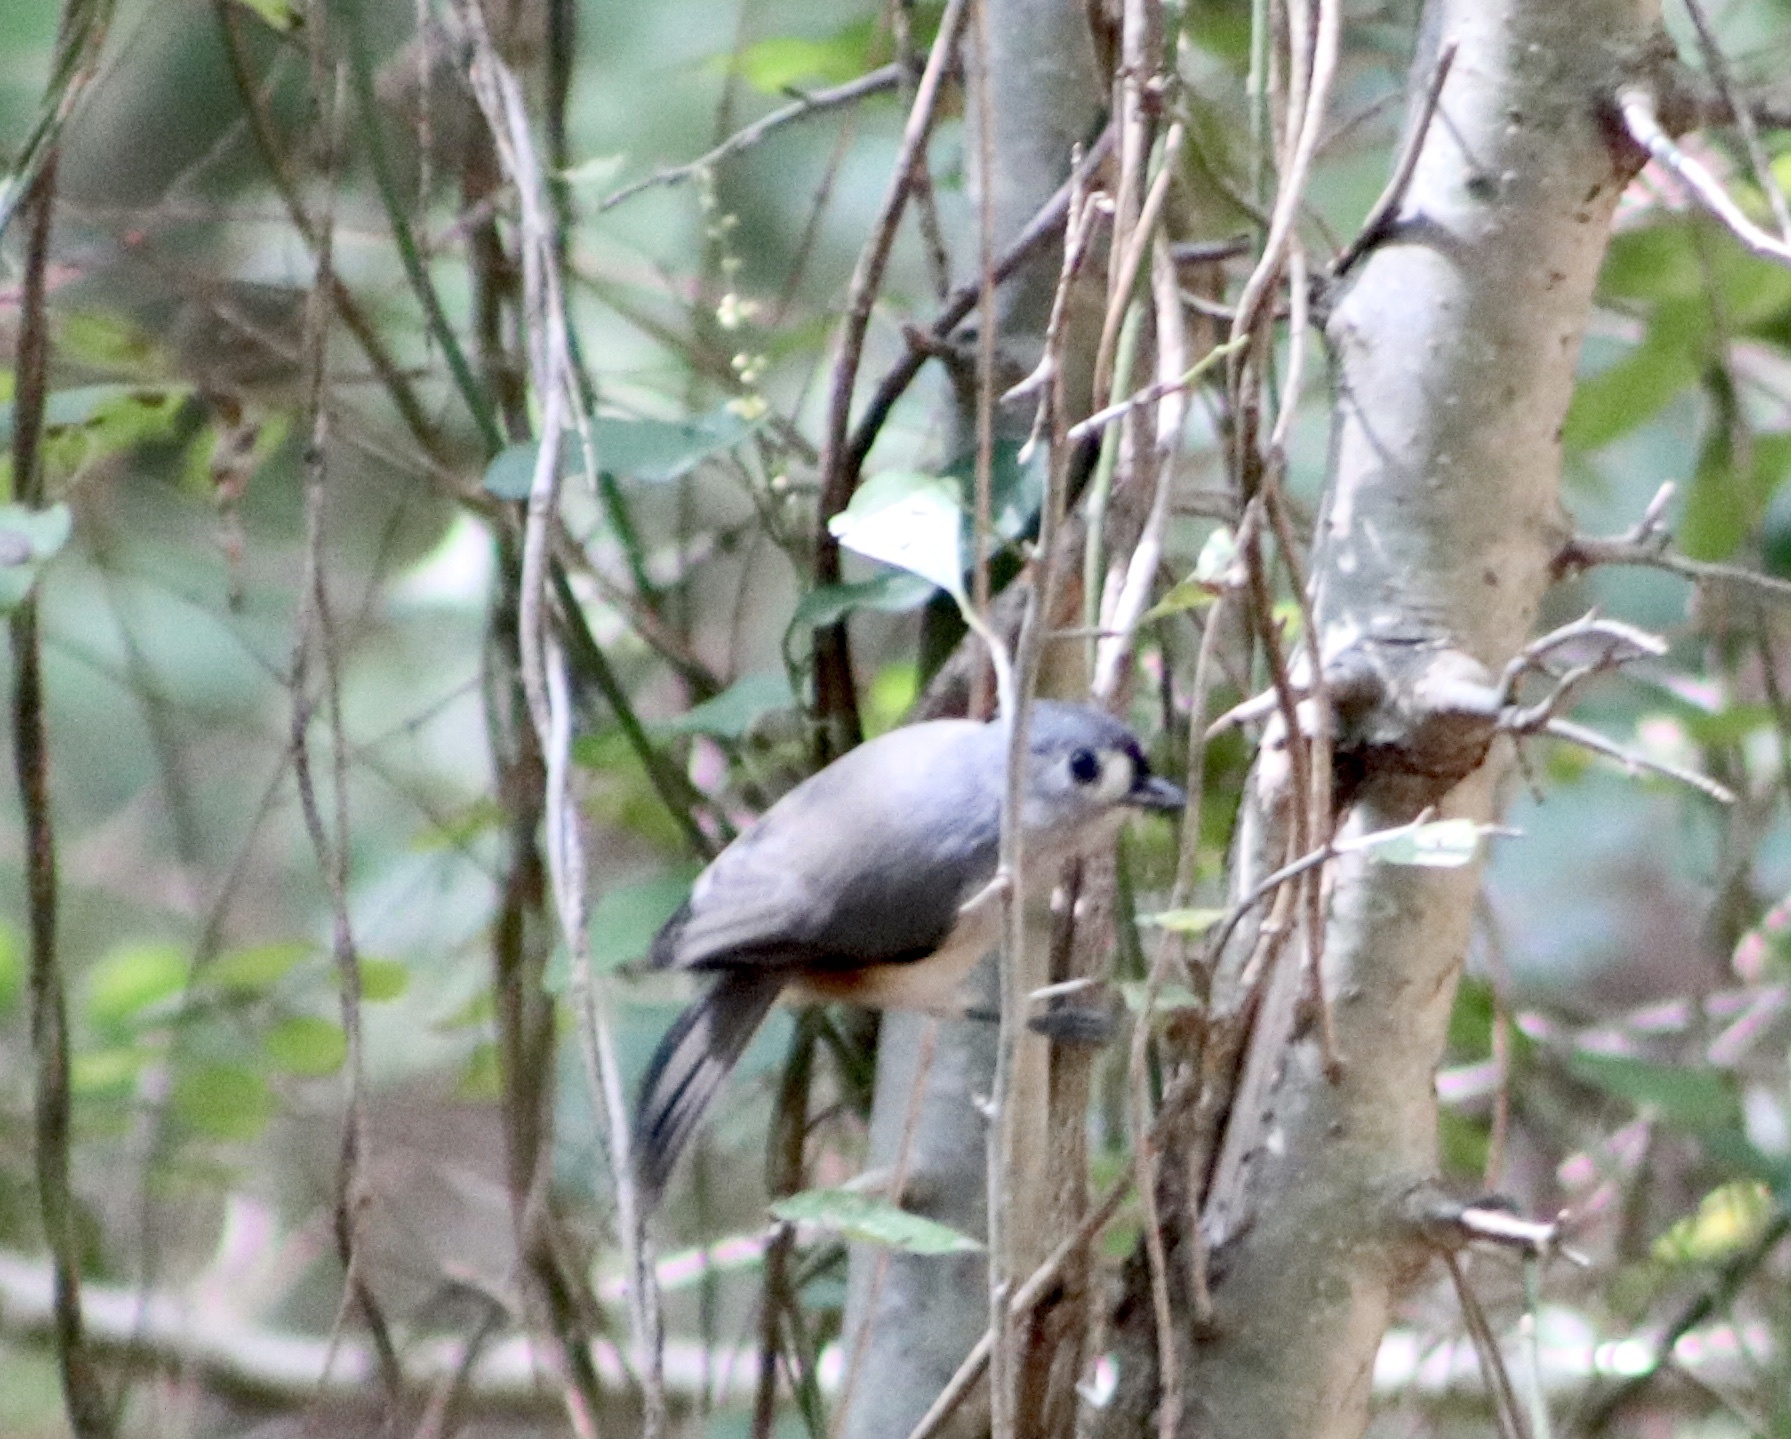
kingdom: Animalia
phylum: Chordata
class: Aves
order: Passeriformes
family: Paridae
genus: Baeolophus
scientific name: Baeolophus bicolor
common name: Tufted titmouse
